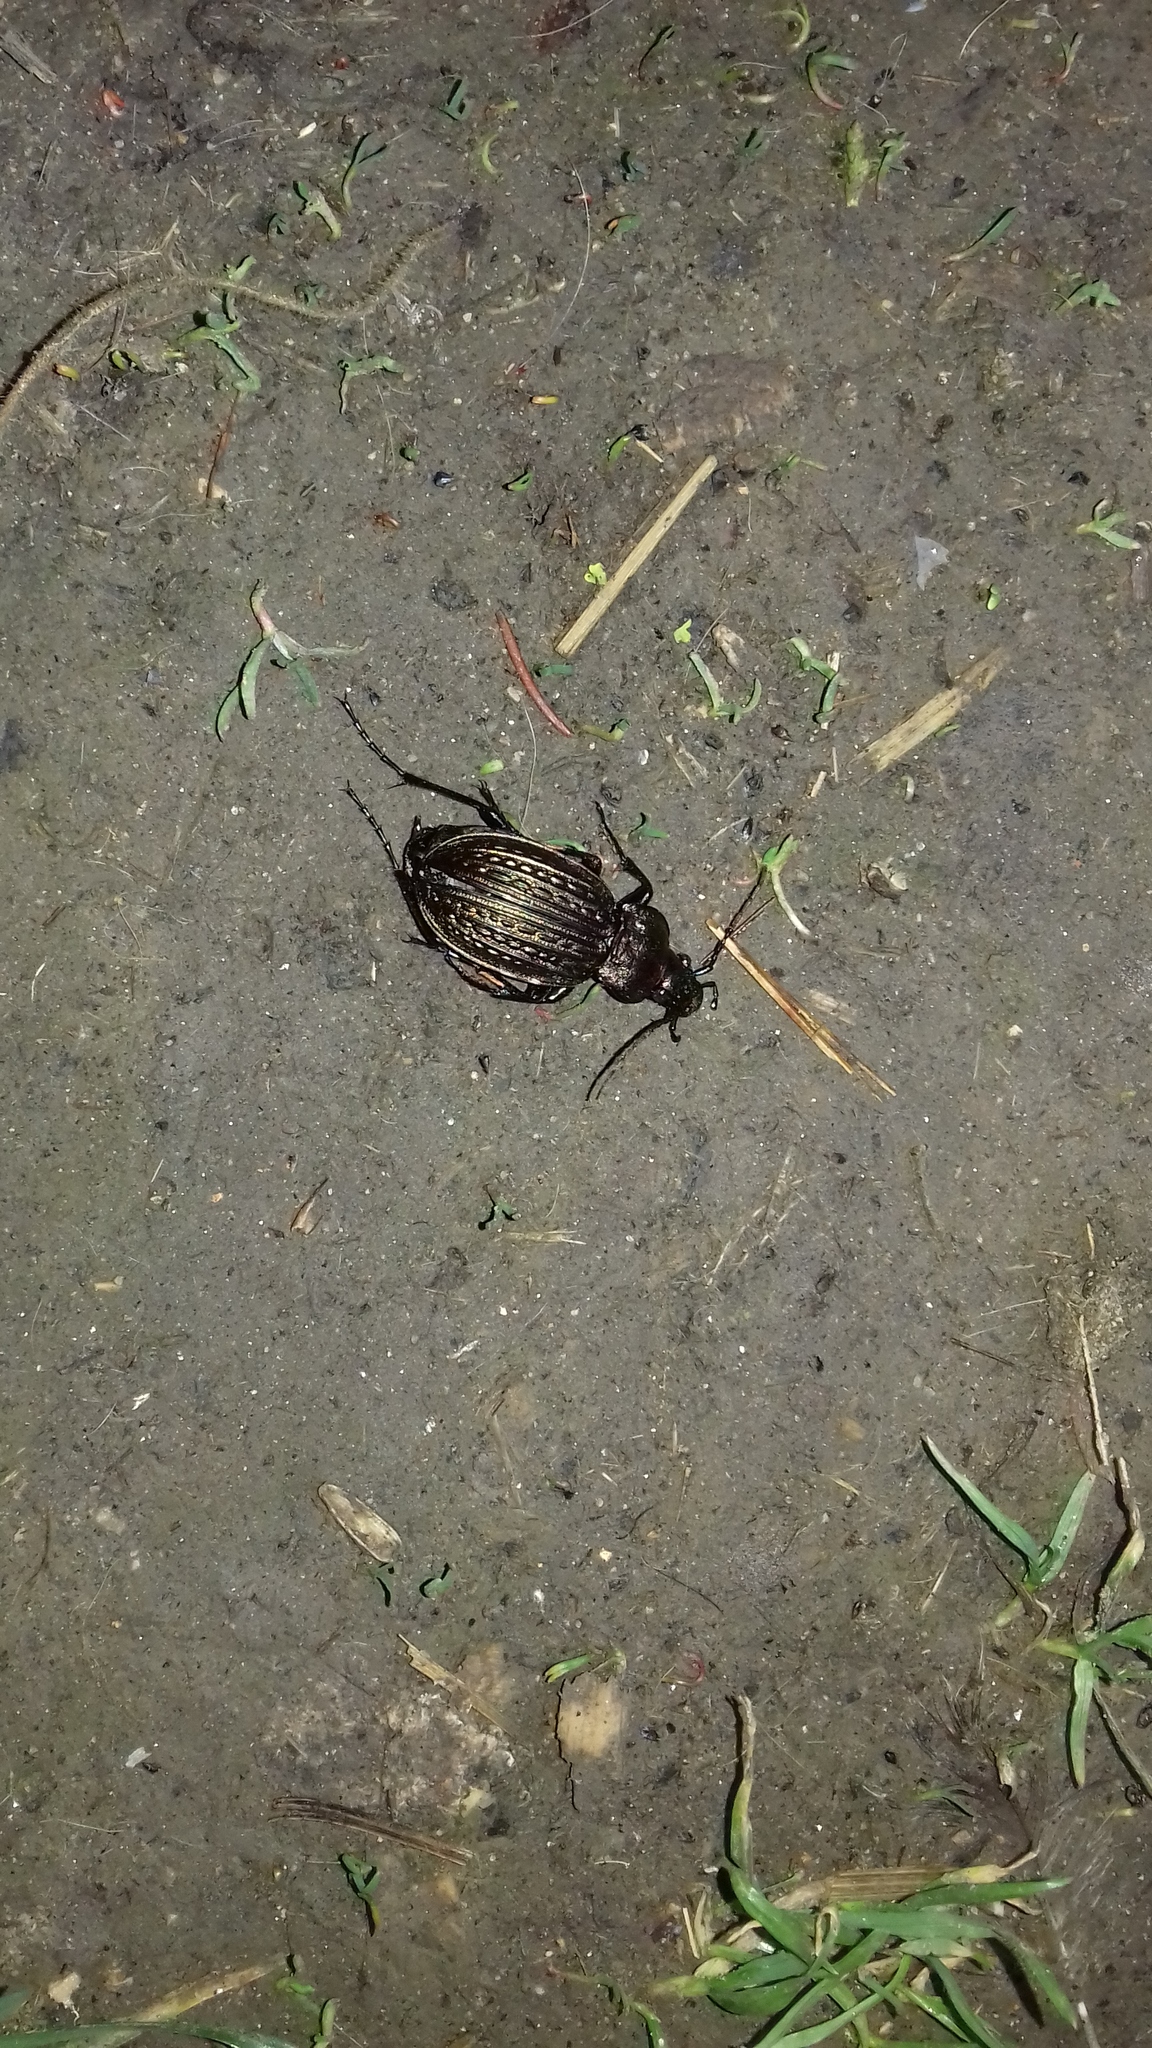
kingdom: Animalia
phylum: Arthropoda
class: Insecta
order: Coleoptera
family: Carabidae
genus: Carabus
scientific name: Carabus ulrichii
